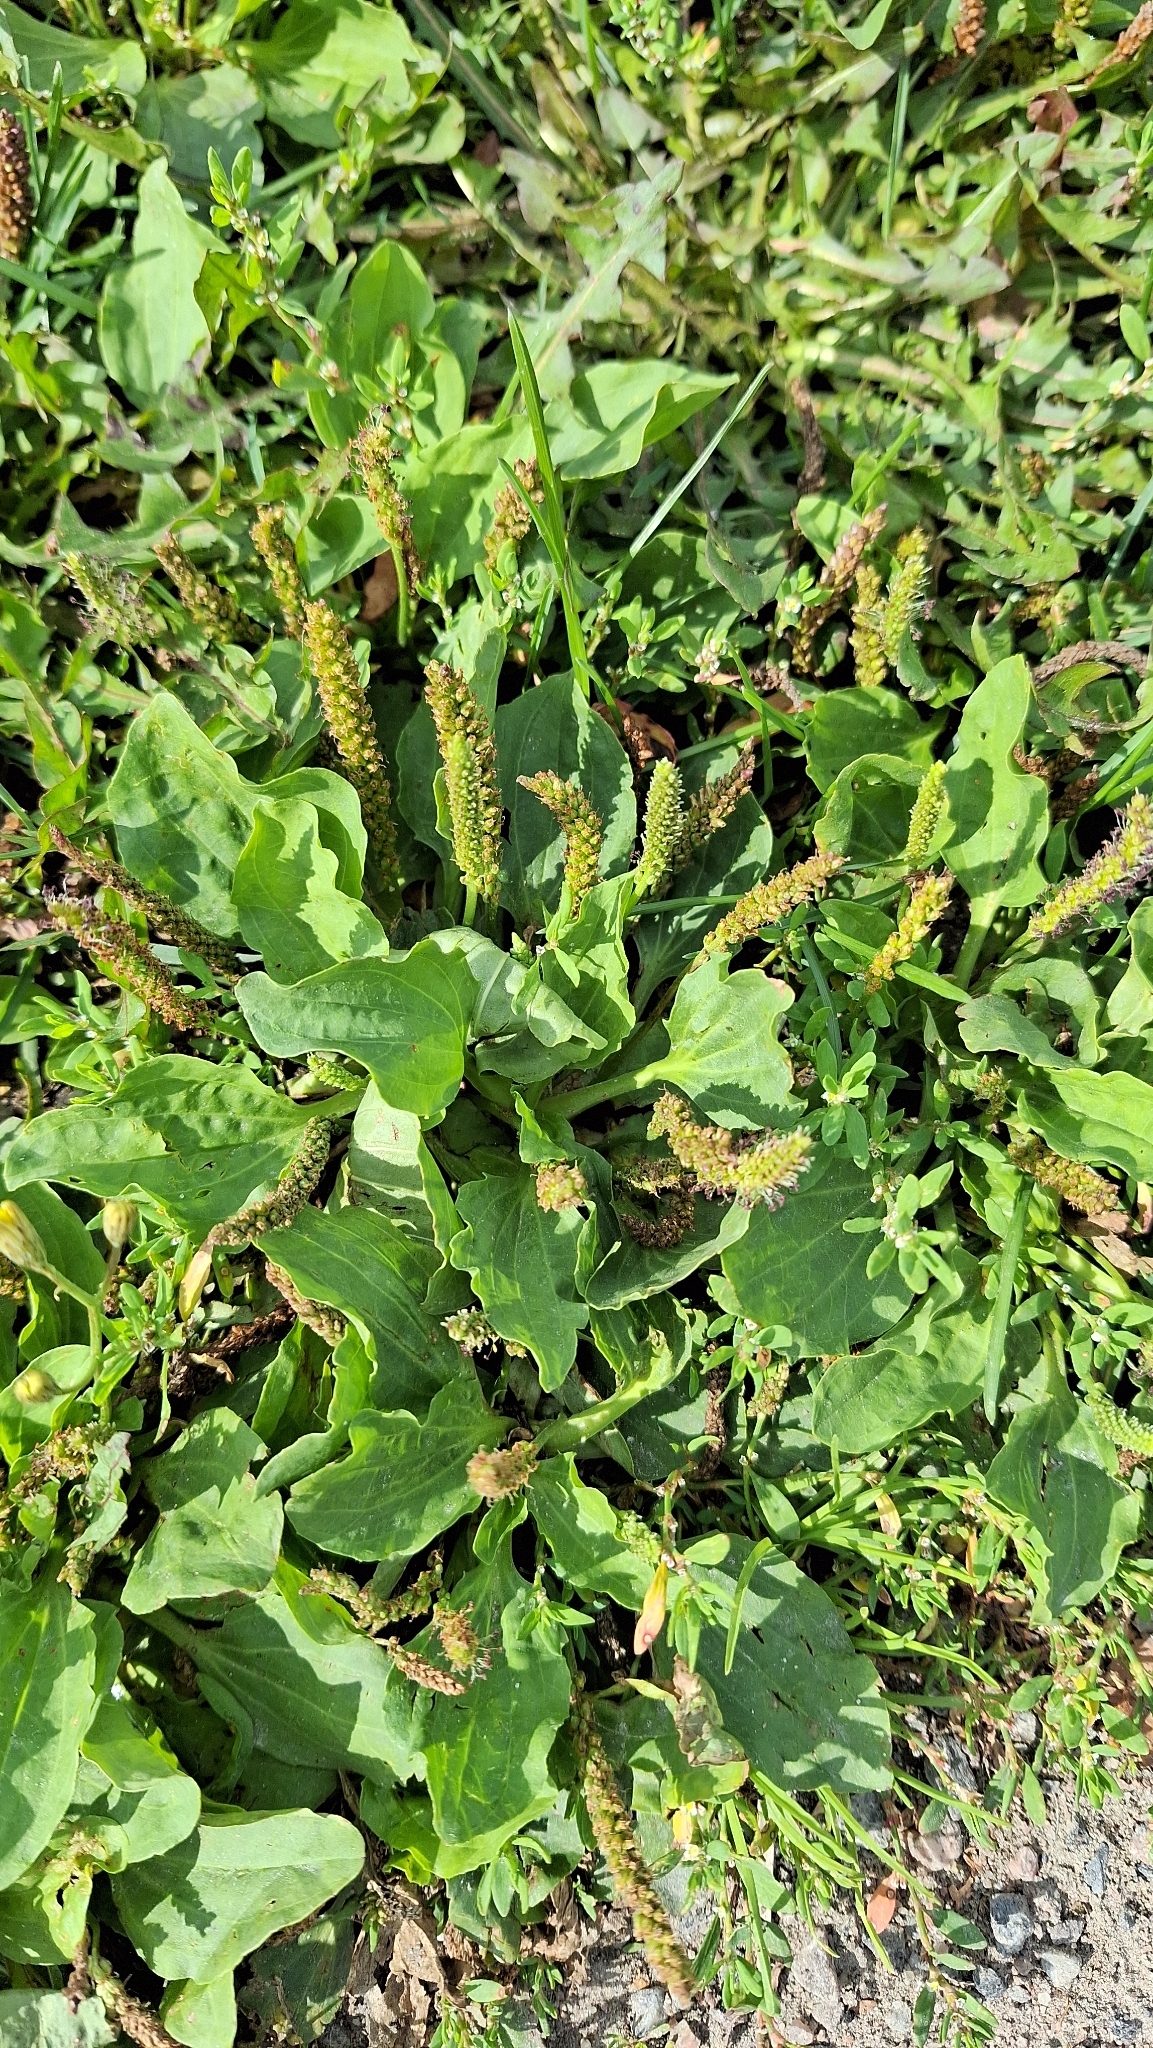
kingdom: Plantae
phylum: Tracheophyta
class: Magnoliopsida
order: Lamiales
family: Plantaginaceae
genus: Plantago
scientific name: Plantago major
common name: Common plantain
